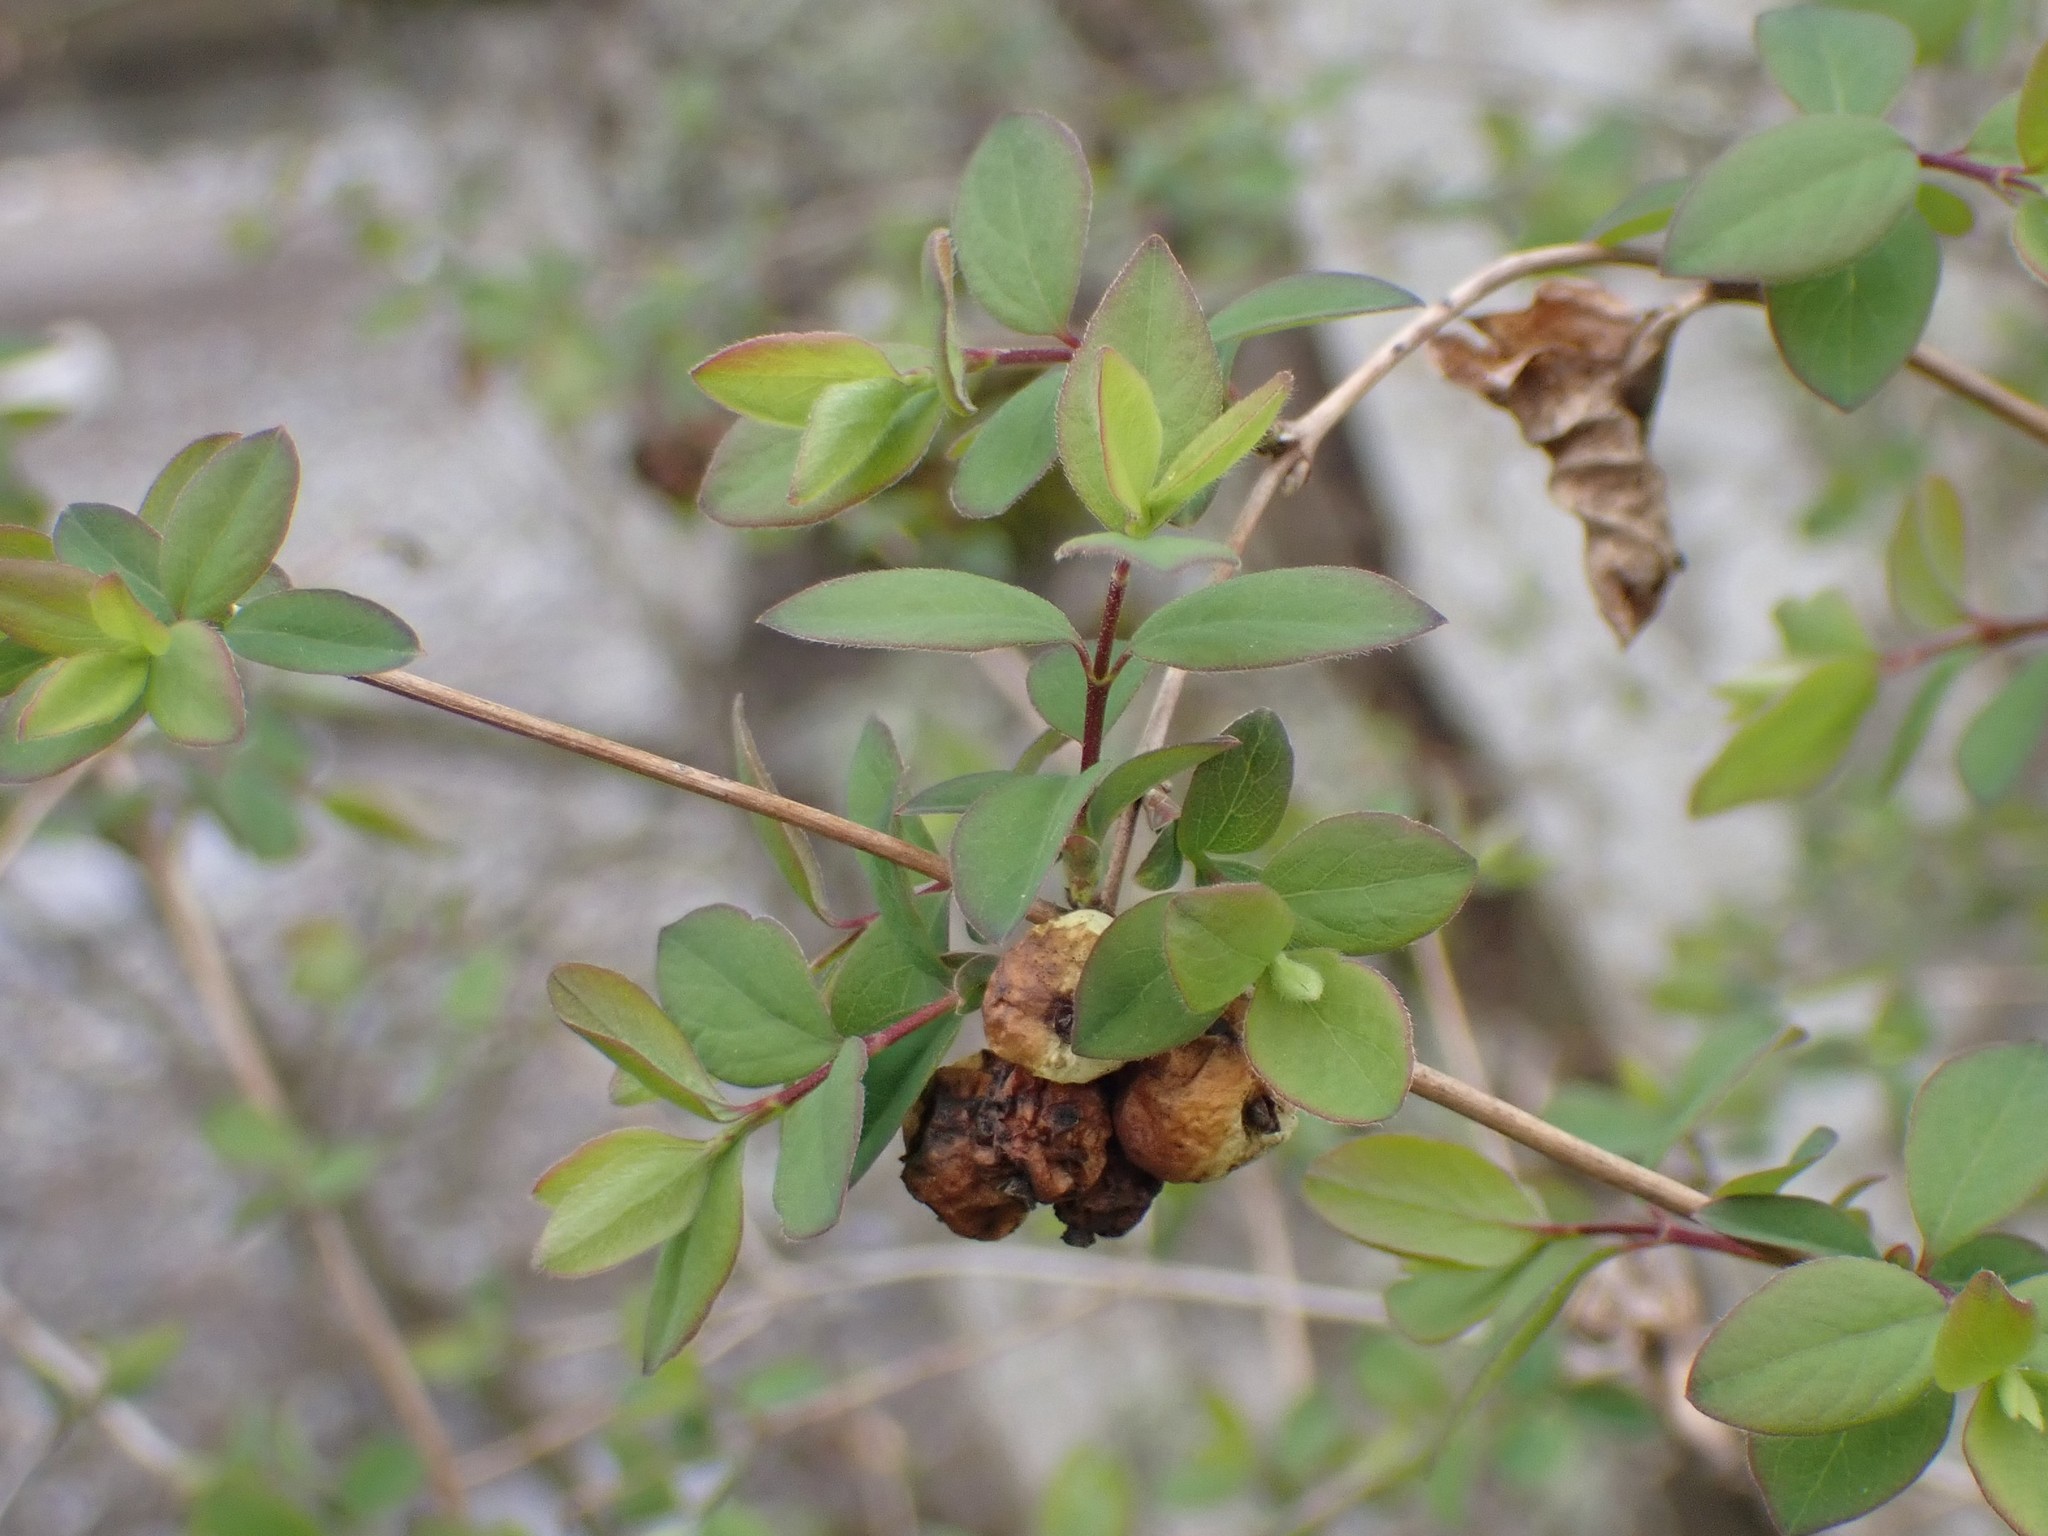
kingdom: Plantae
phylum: Tracheophyta
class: Magnoliopsida
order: Dipsacales
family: Caprifoliaceae
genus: Symphoricarpos
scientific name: Symphoricarpos albus
